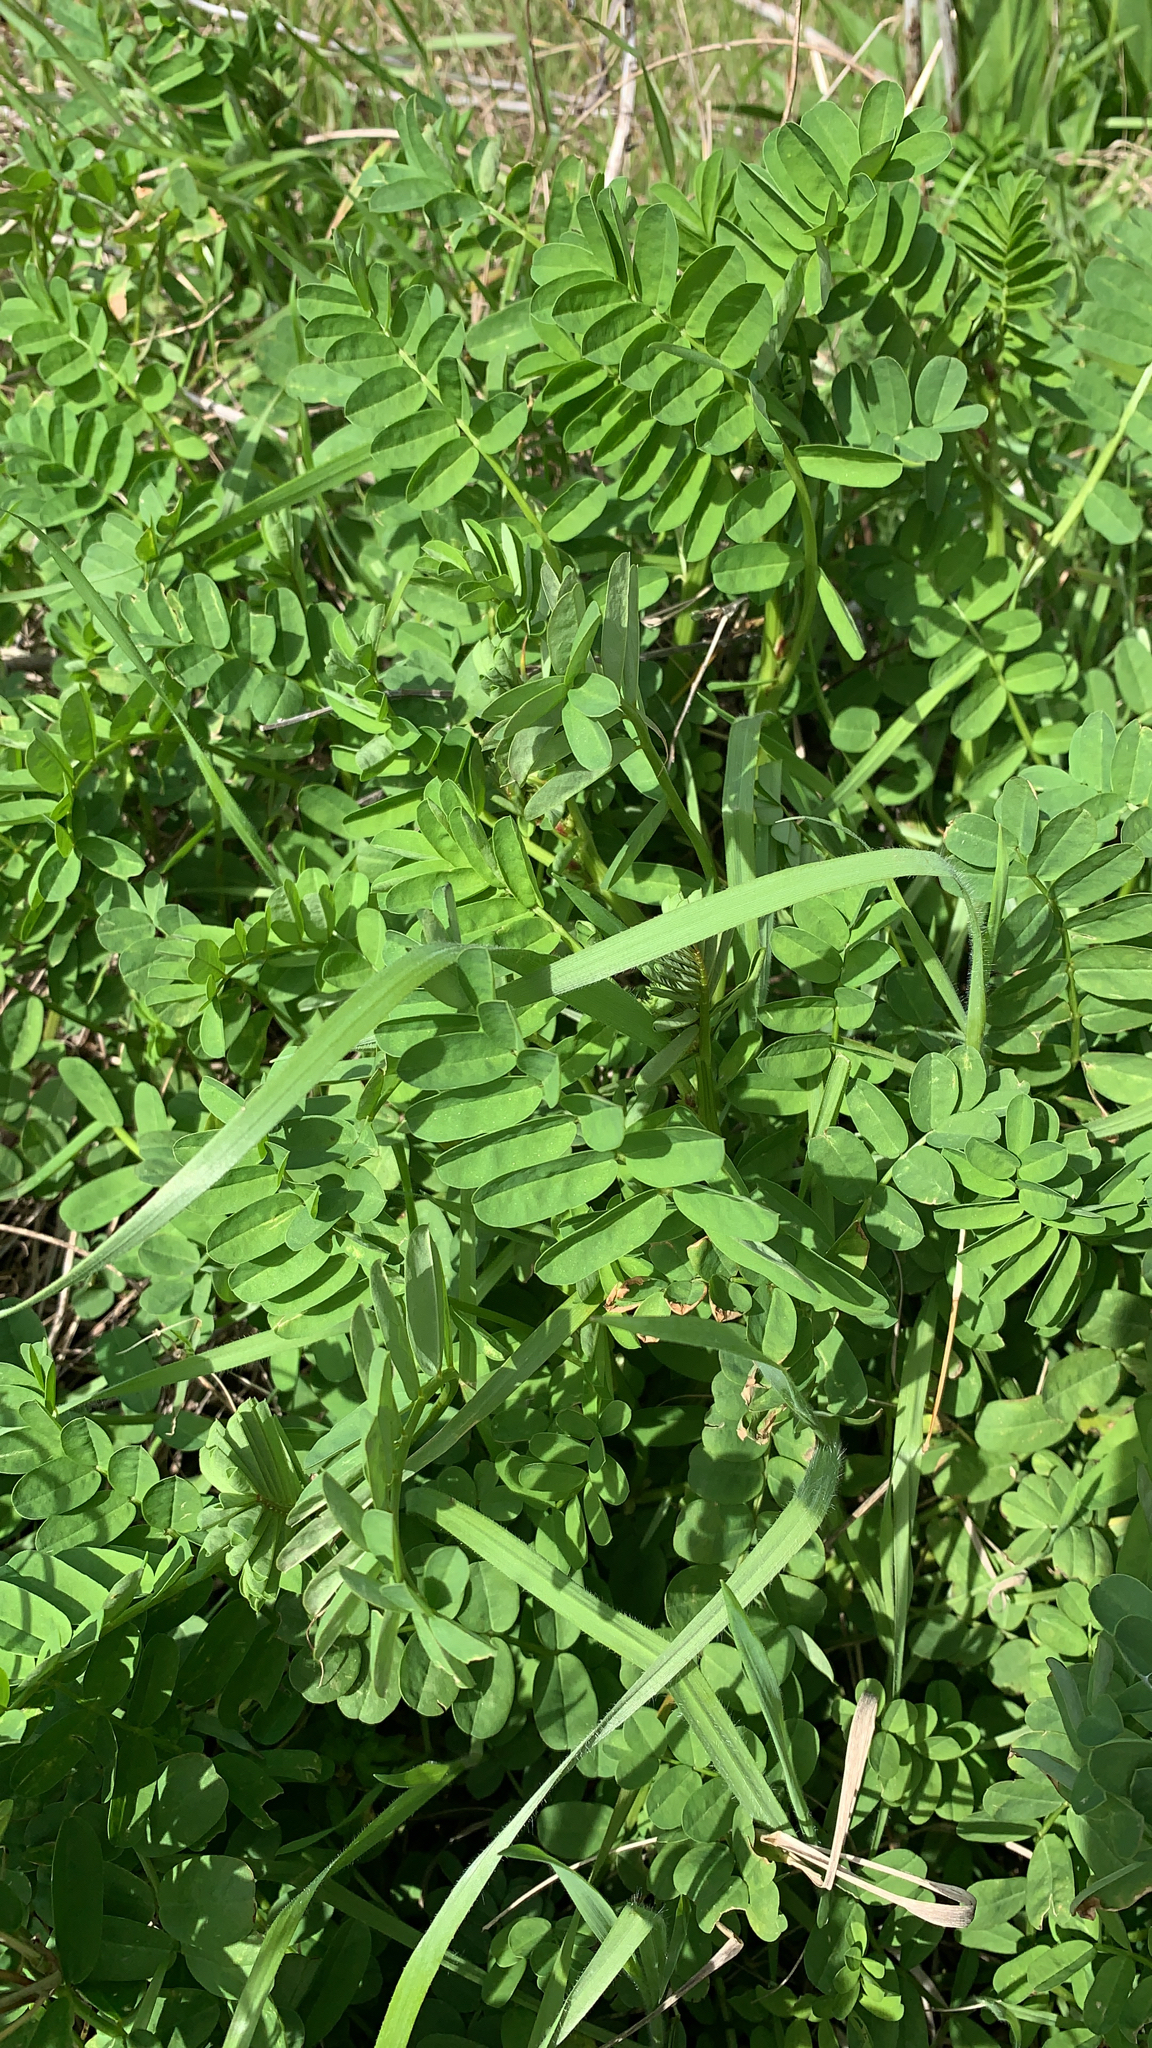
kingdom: Plantae
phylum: Tracheophyta
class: Magnoliopsida
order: Fabales
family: Fabaceae
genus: Coronilla
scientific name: Coronilla varia
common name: Crownvetch
